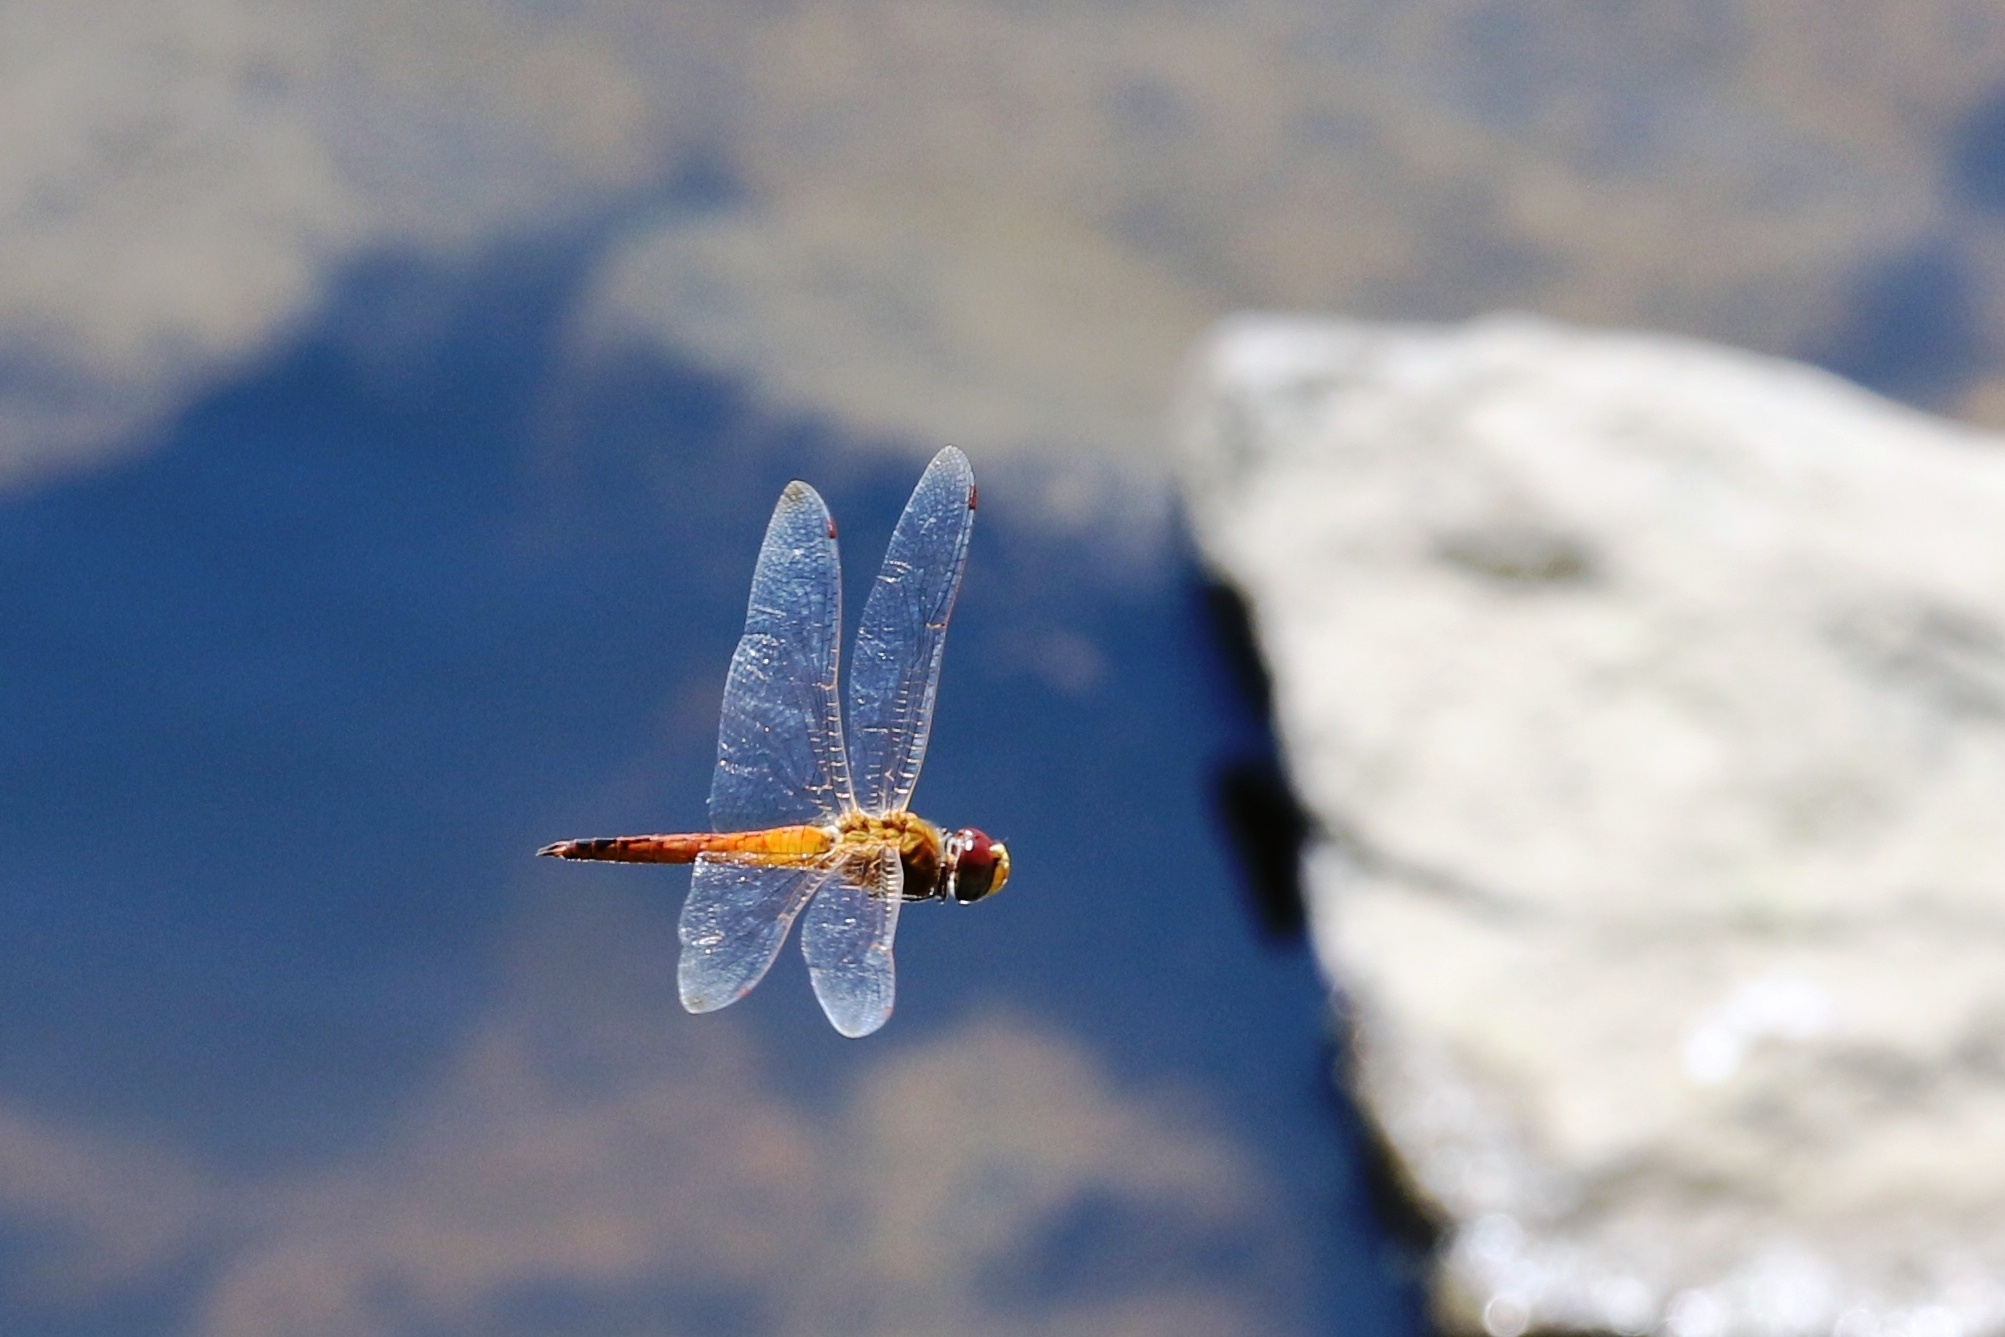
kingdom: Animalia
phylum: Arthropoda
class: Insecta
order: Odonata
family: Libellulidae
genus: Pantala
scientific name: Pantala flavescens
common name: Wandering glider
